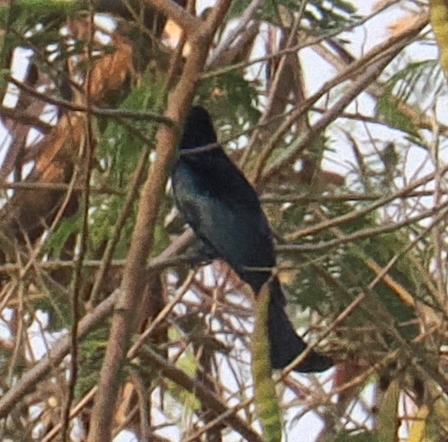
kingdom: Animalia
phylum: Chordata
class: Aves
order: Passeriformes
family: Dicruridae
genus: Dicrurus
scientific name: Dicrurus densus
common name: Wallacean drongo
